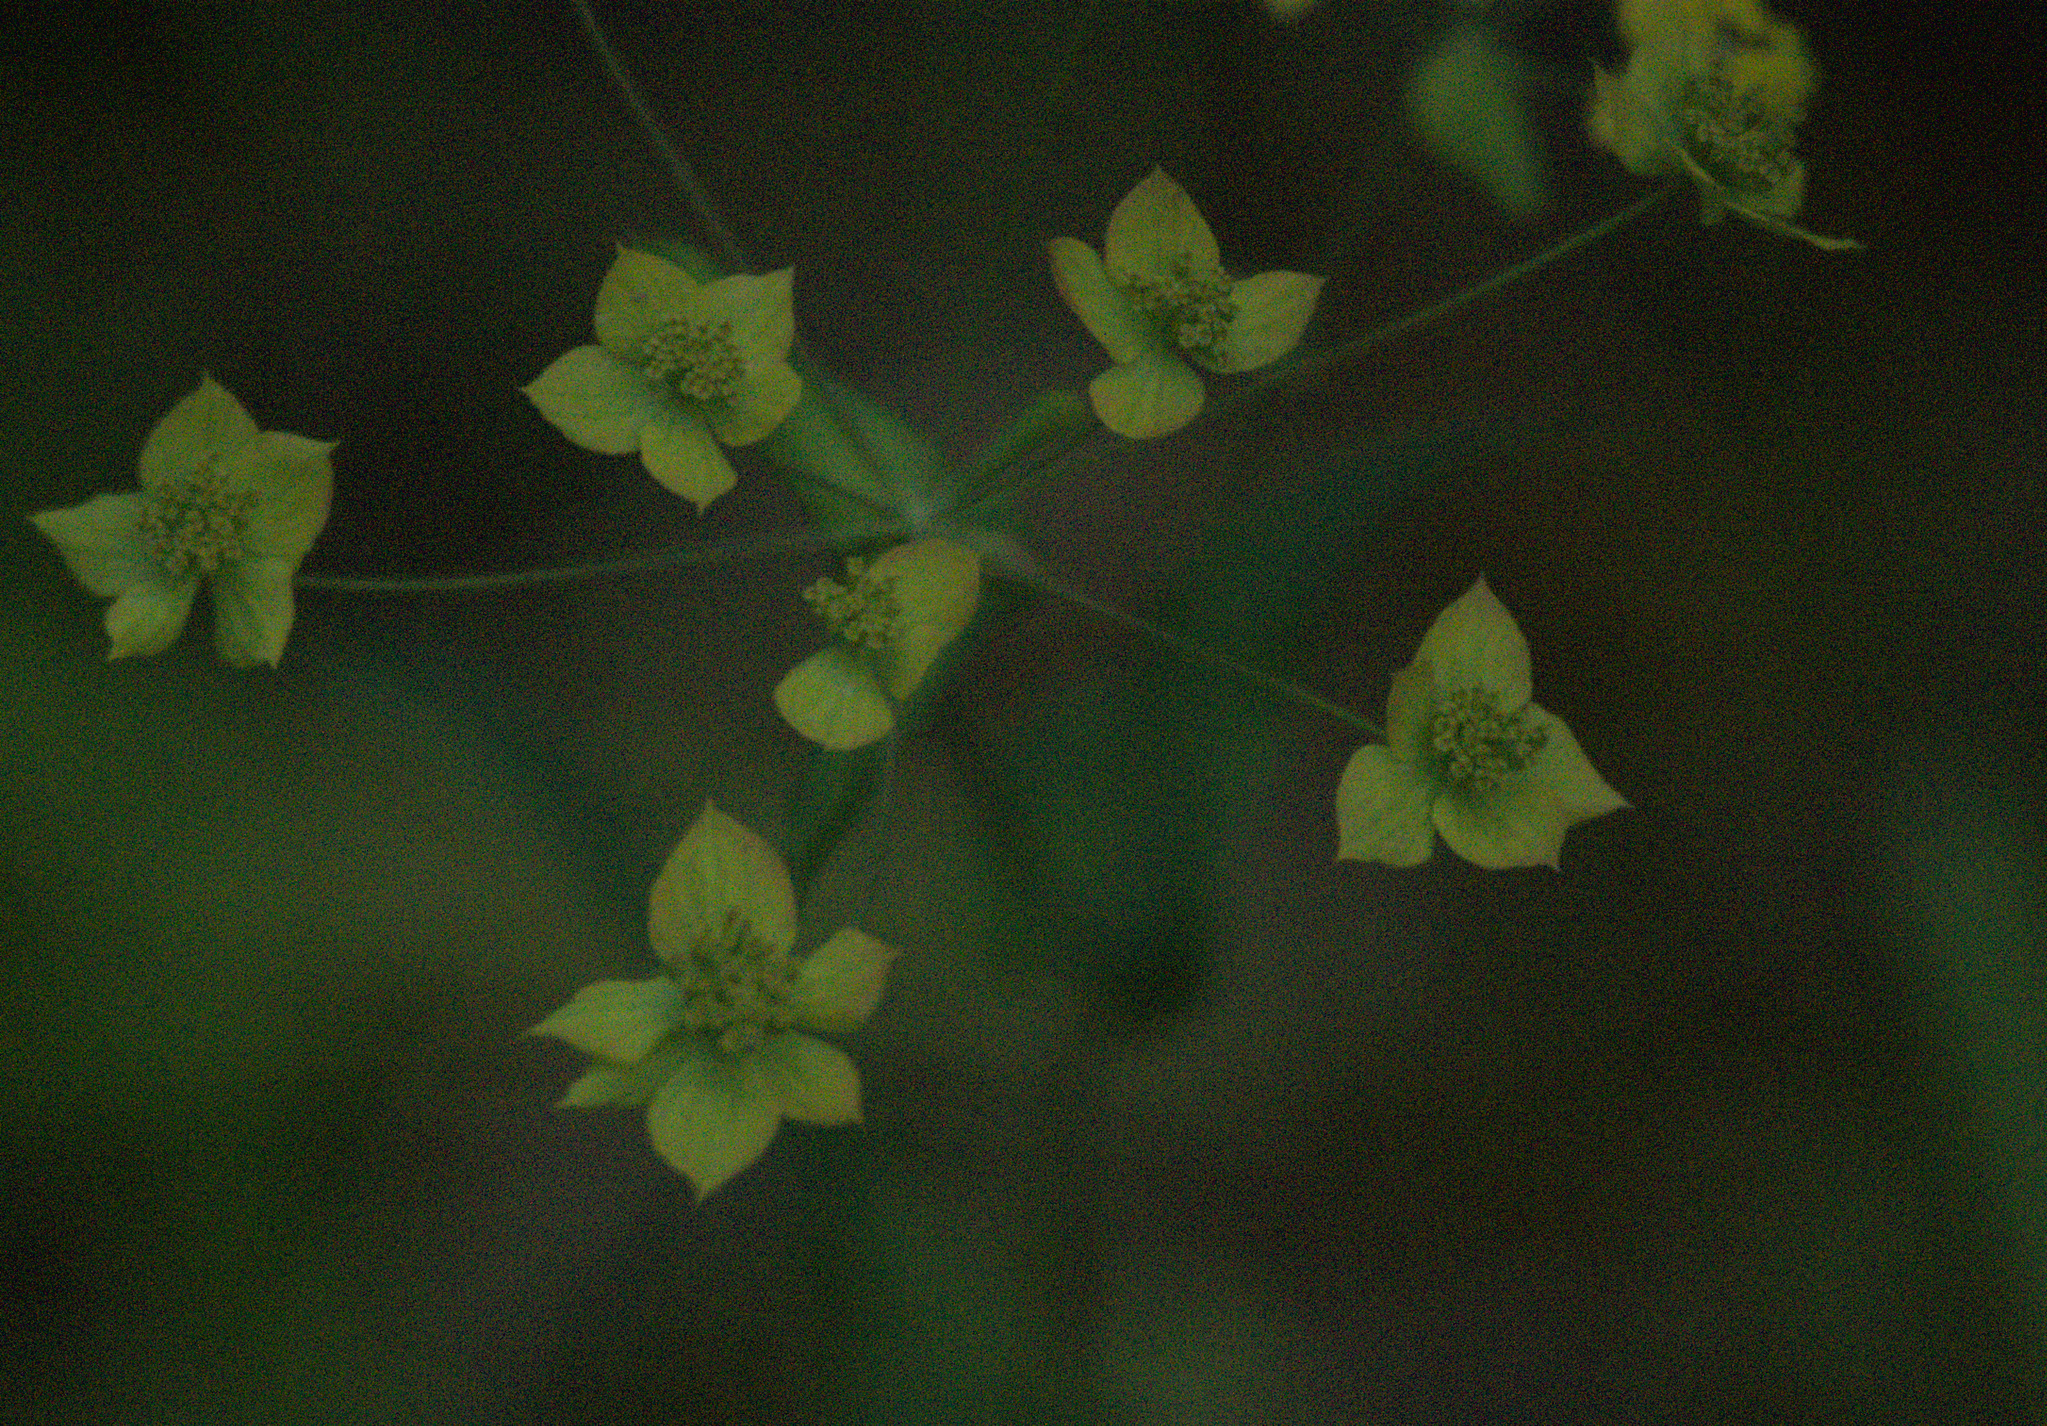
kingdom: Plantae
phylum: Tracheophyta
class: Magnoliopsida
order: Apiales
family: Apiaceae
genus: Bupleurum
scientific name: Bupleurum multinerve
